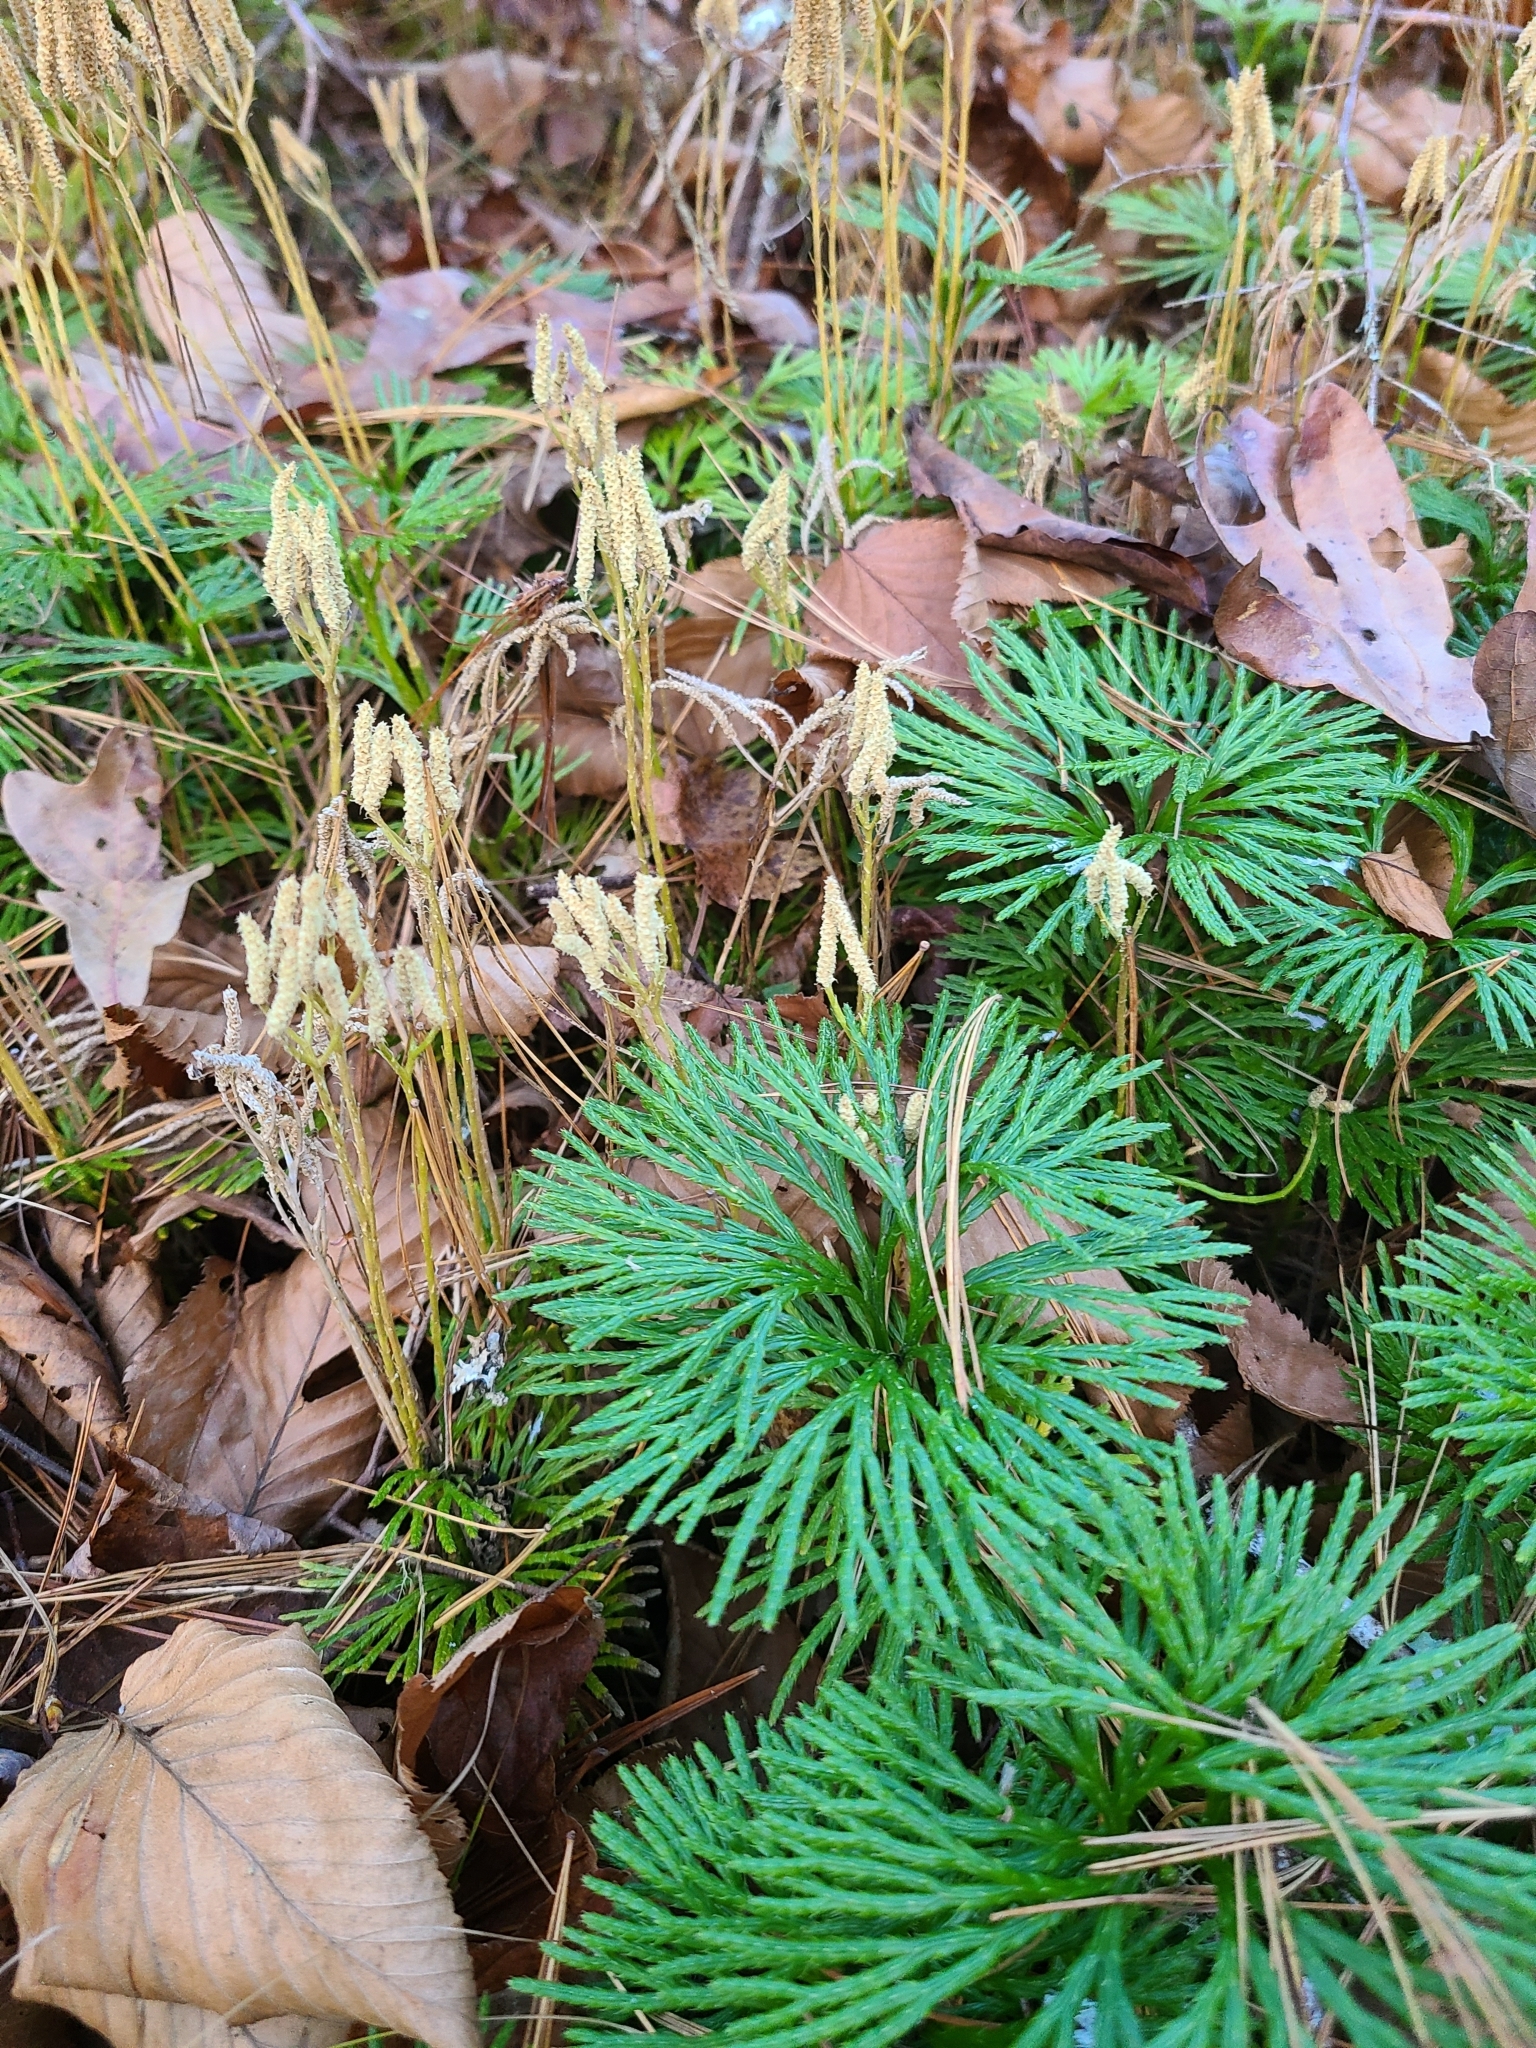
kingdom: Plantae
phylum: Tracheophyta
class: Lycopodiopsida
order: Lycopodiales
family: Lycopodiaceae
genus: Diphasiastrum
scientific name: Diphasiastrum digitatum
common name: Southern running-pine
